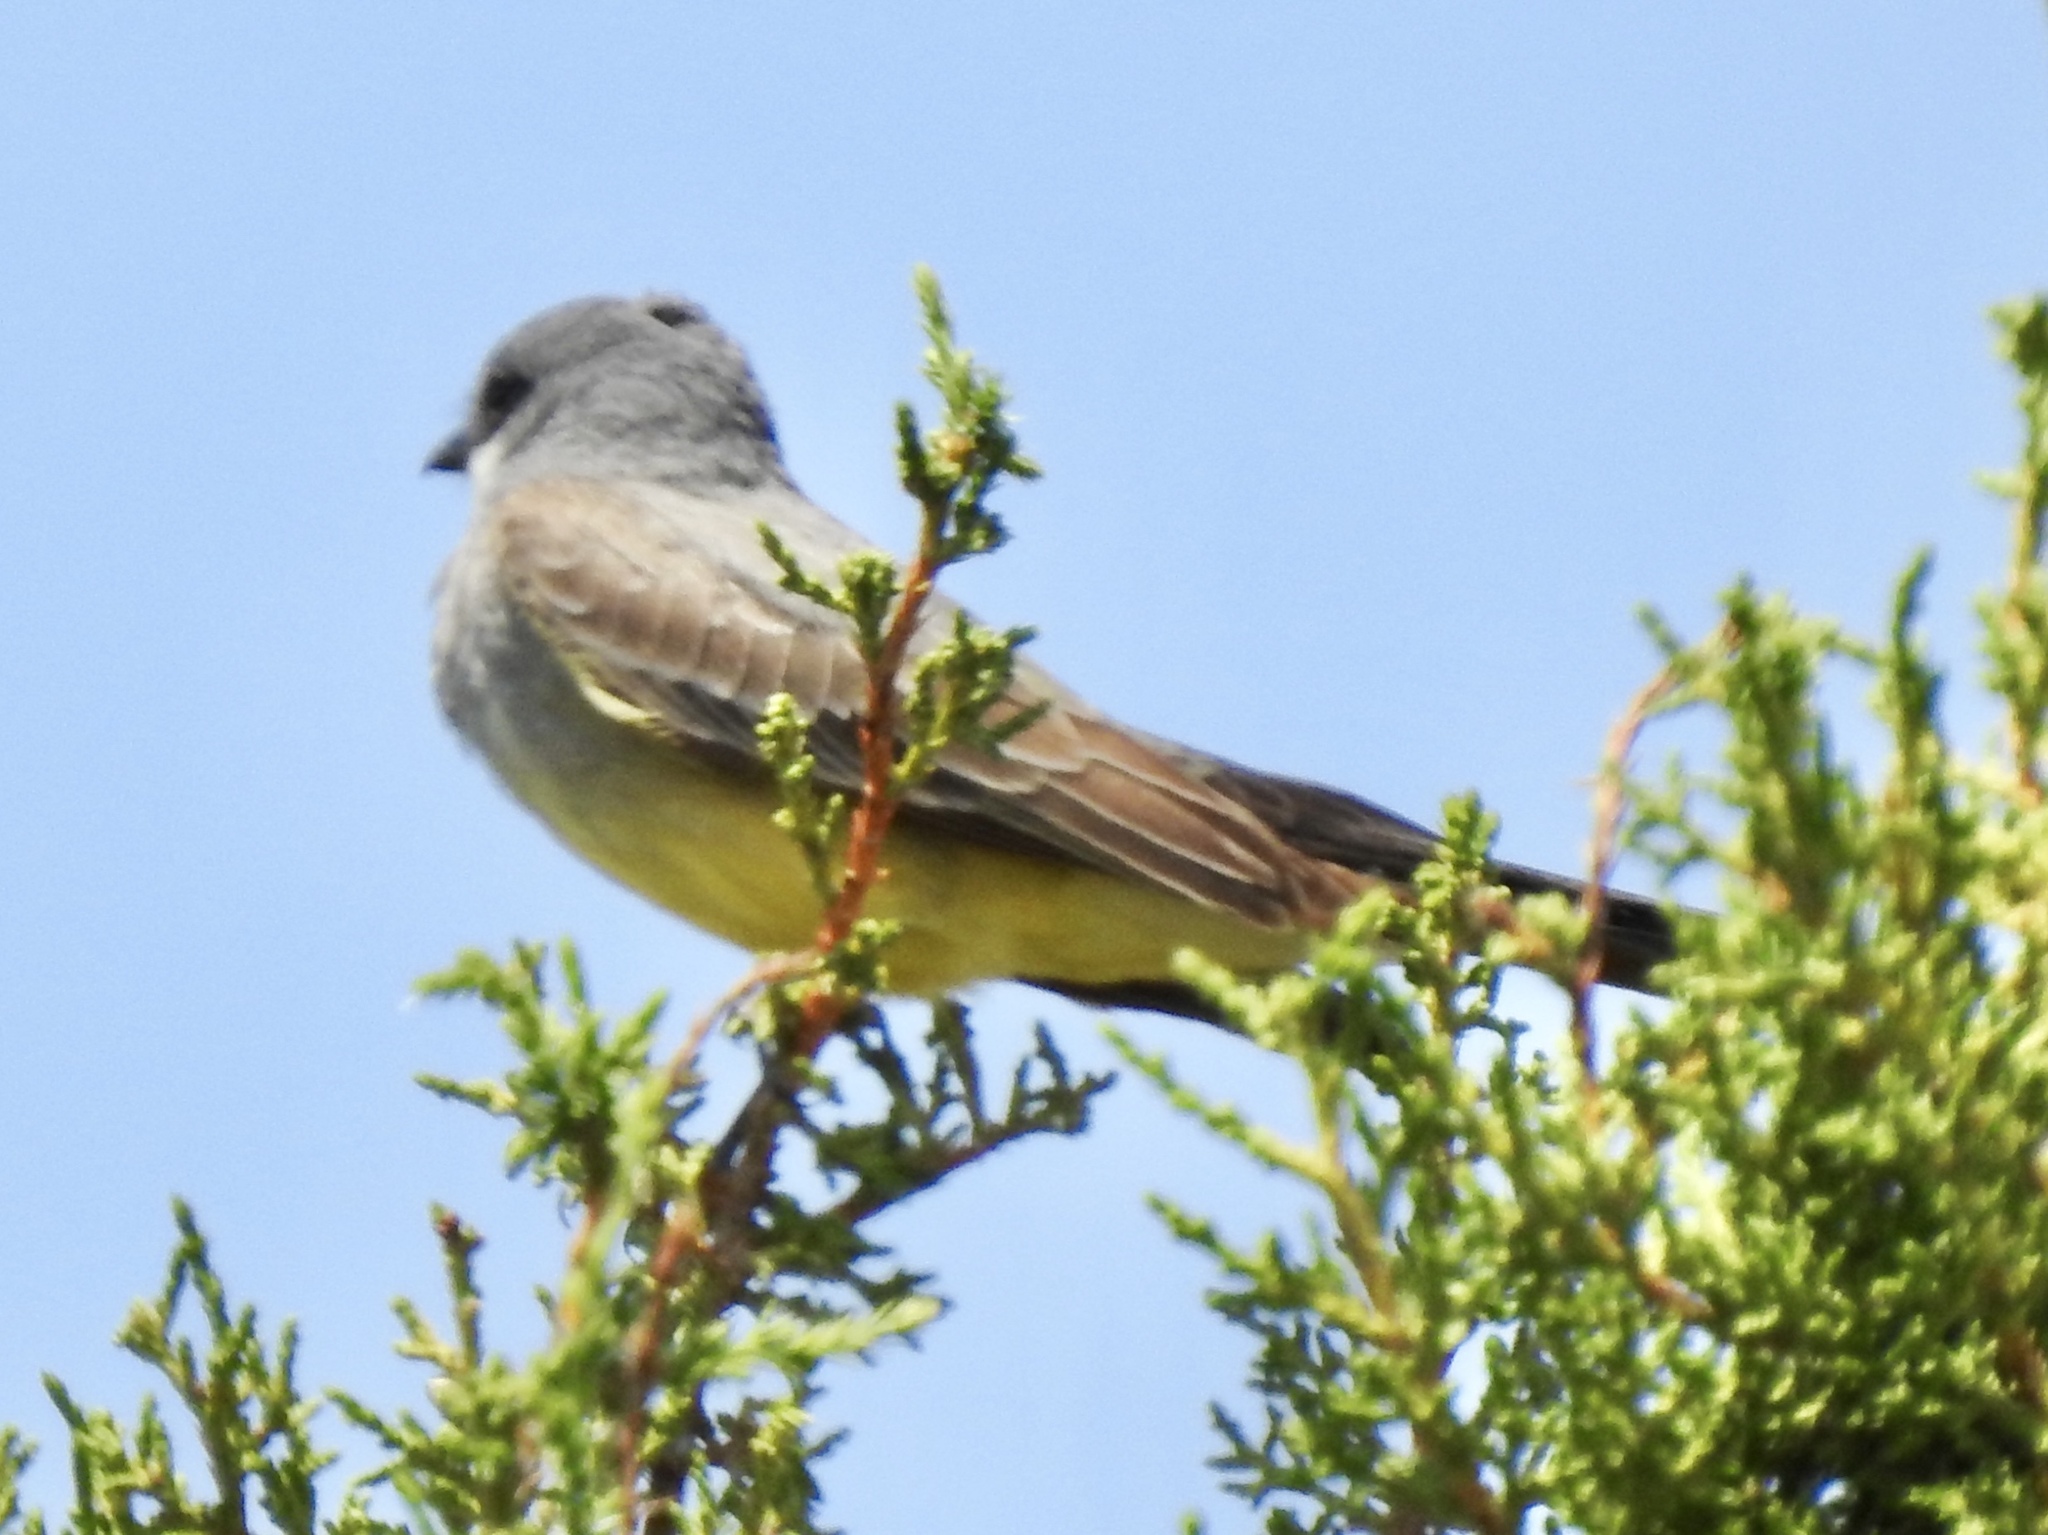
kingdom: Animalia
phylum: Chordata
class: Aves
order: Passeriformes
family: Tyrannidae
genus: Tyrannus
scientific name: Tyrannus vociferans
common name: Cassin's kingbird
